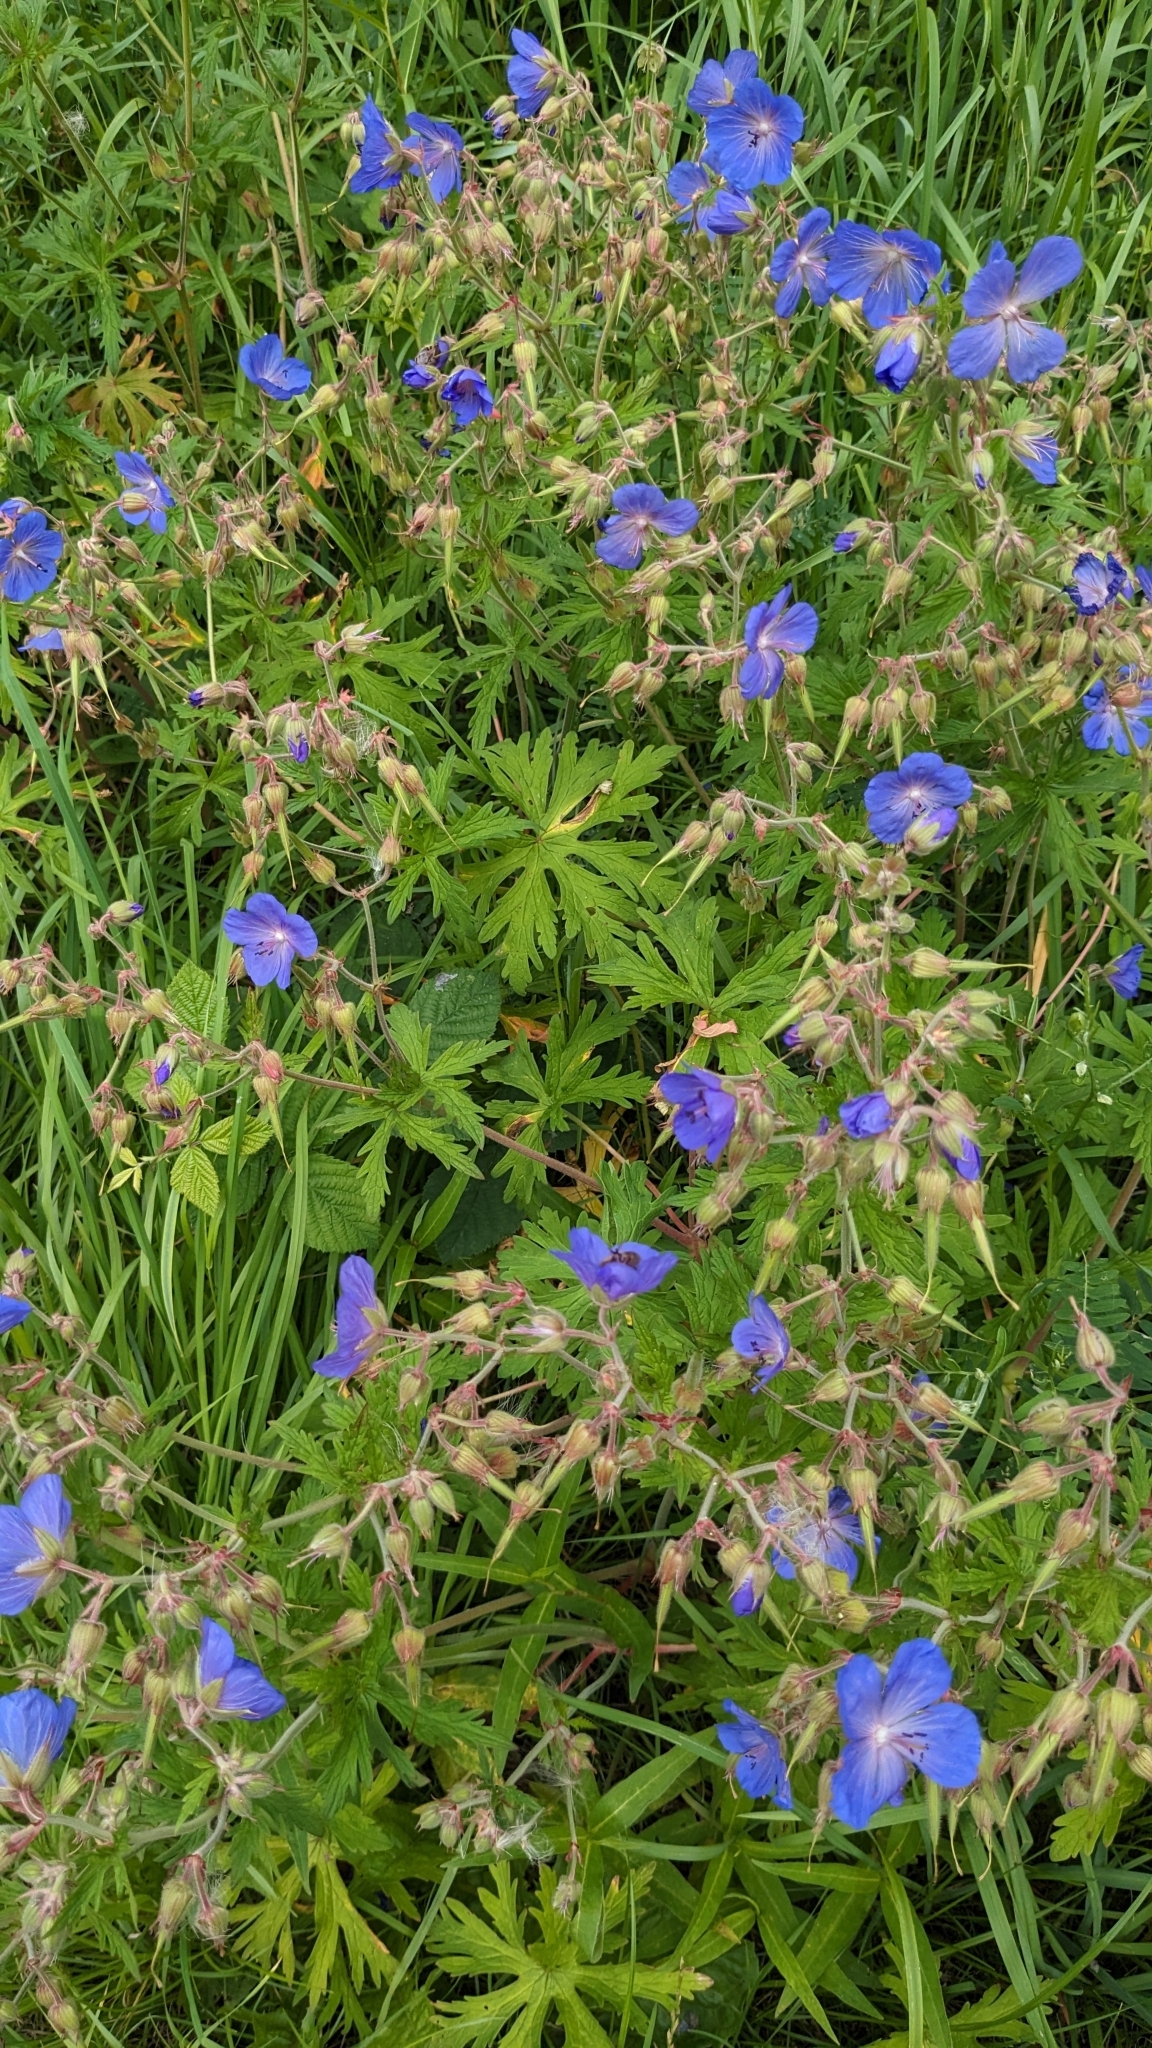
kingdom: Plantae
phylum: Tracheophyta
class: Magnoliopsida
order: Geraniales
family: Geraniaceae
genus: Geranium
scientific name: Geranium pratense
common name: Meadow crane's-bill
